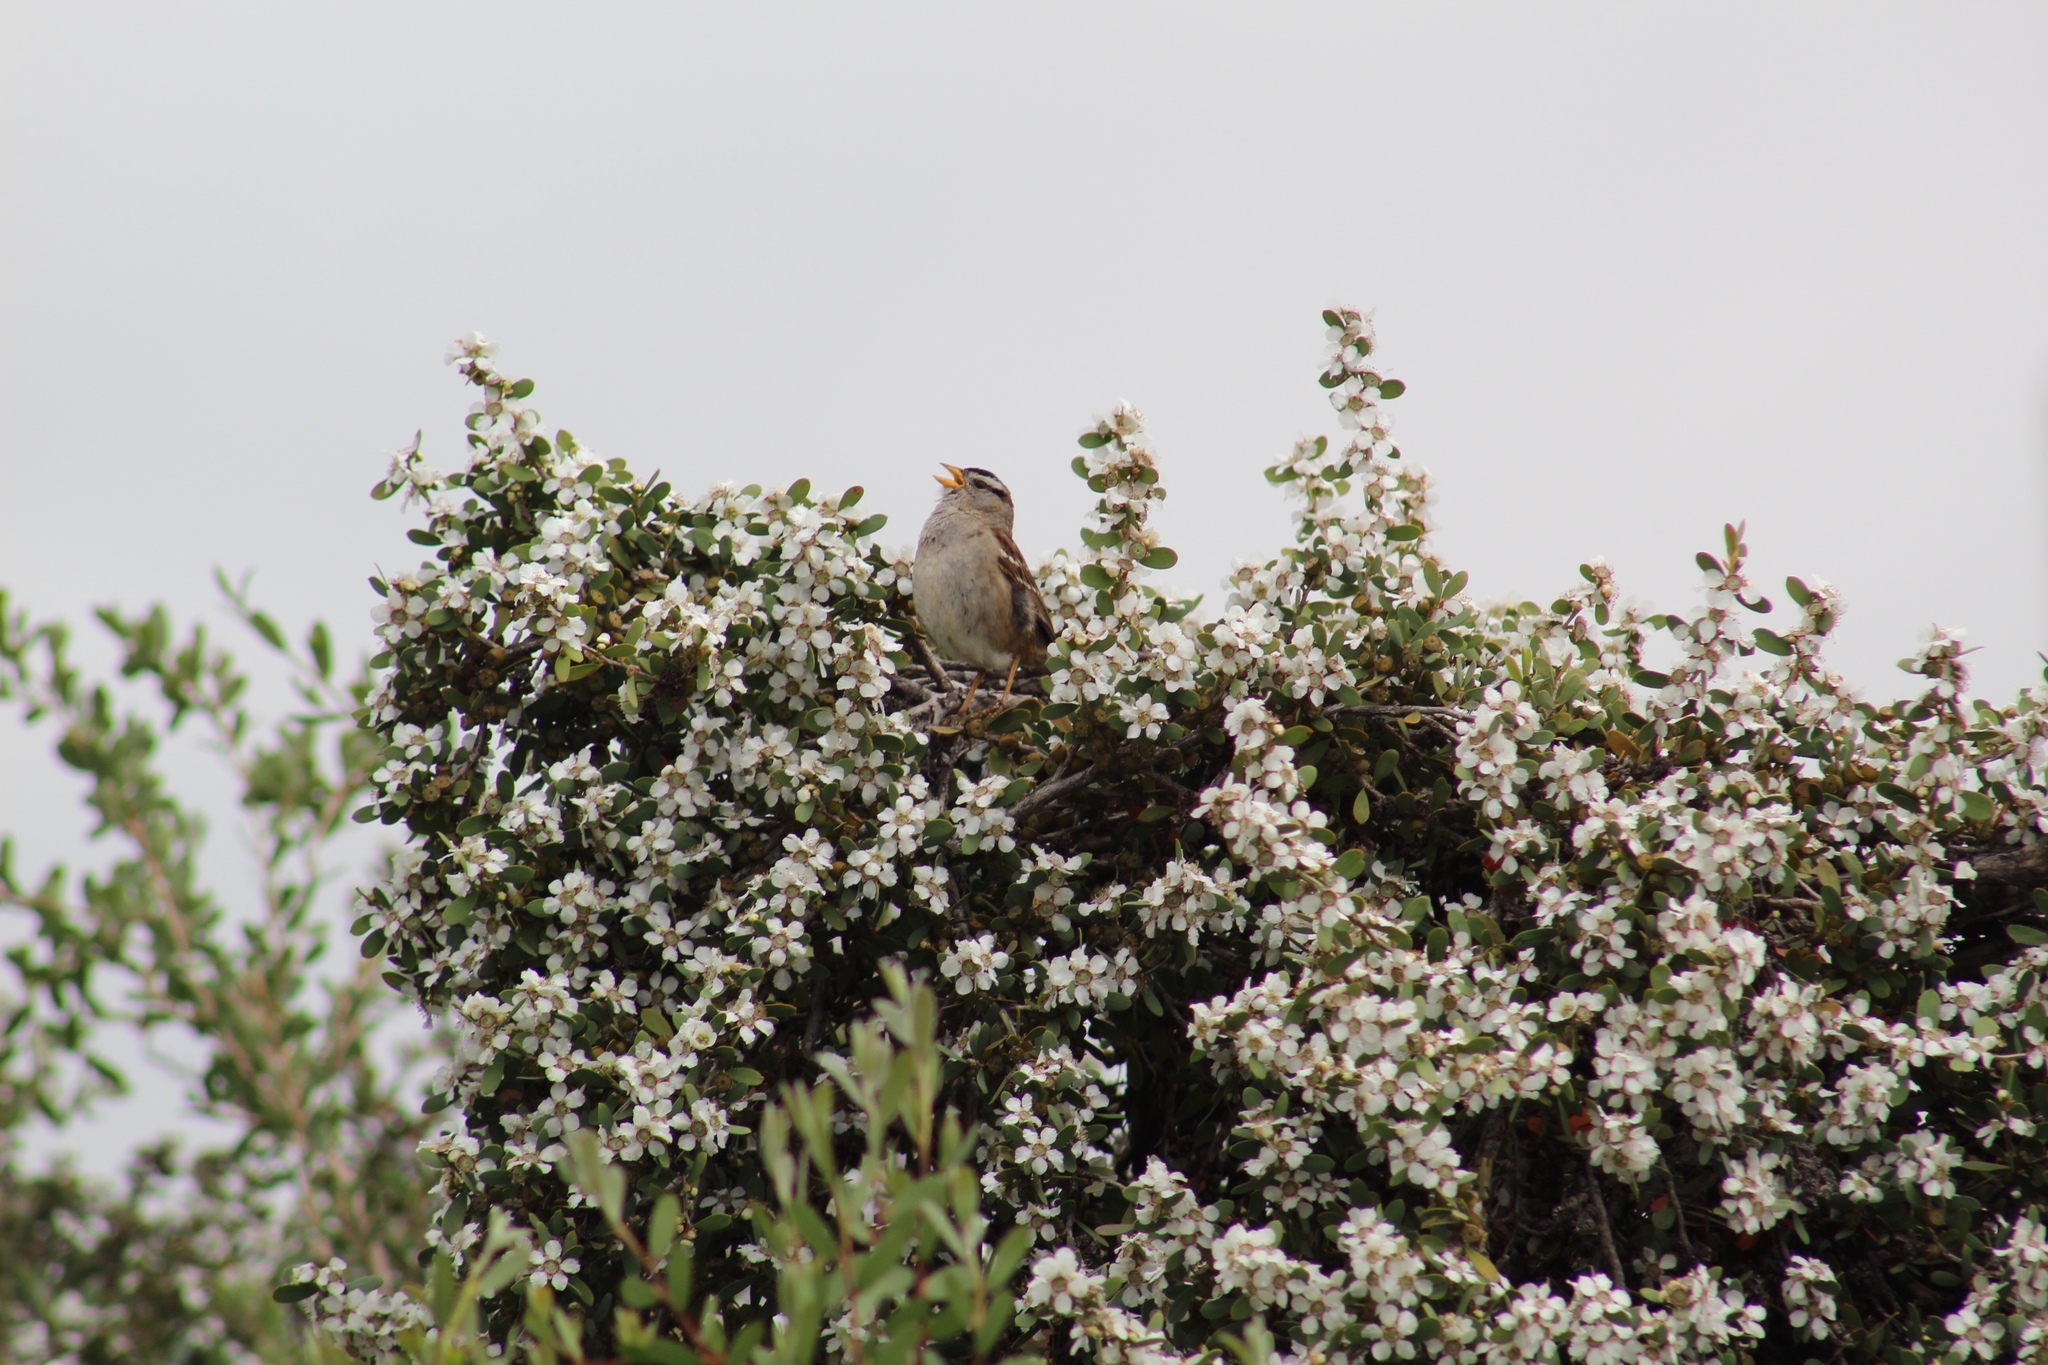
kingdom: Animalia
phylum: Chordata
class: Aves
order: Passeriformes
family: Passerellidae
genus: Zonotrichia
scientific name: Zonotrichia leucophrys
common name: White-crowned sparrow
